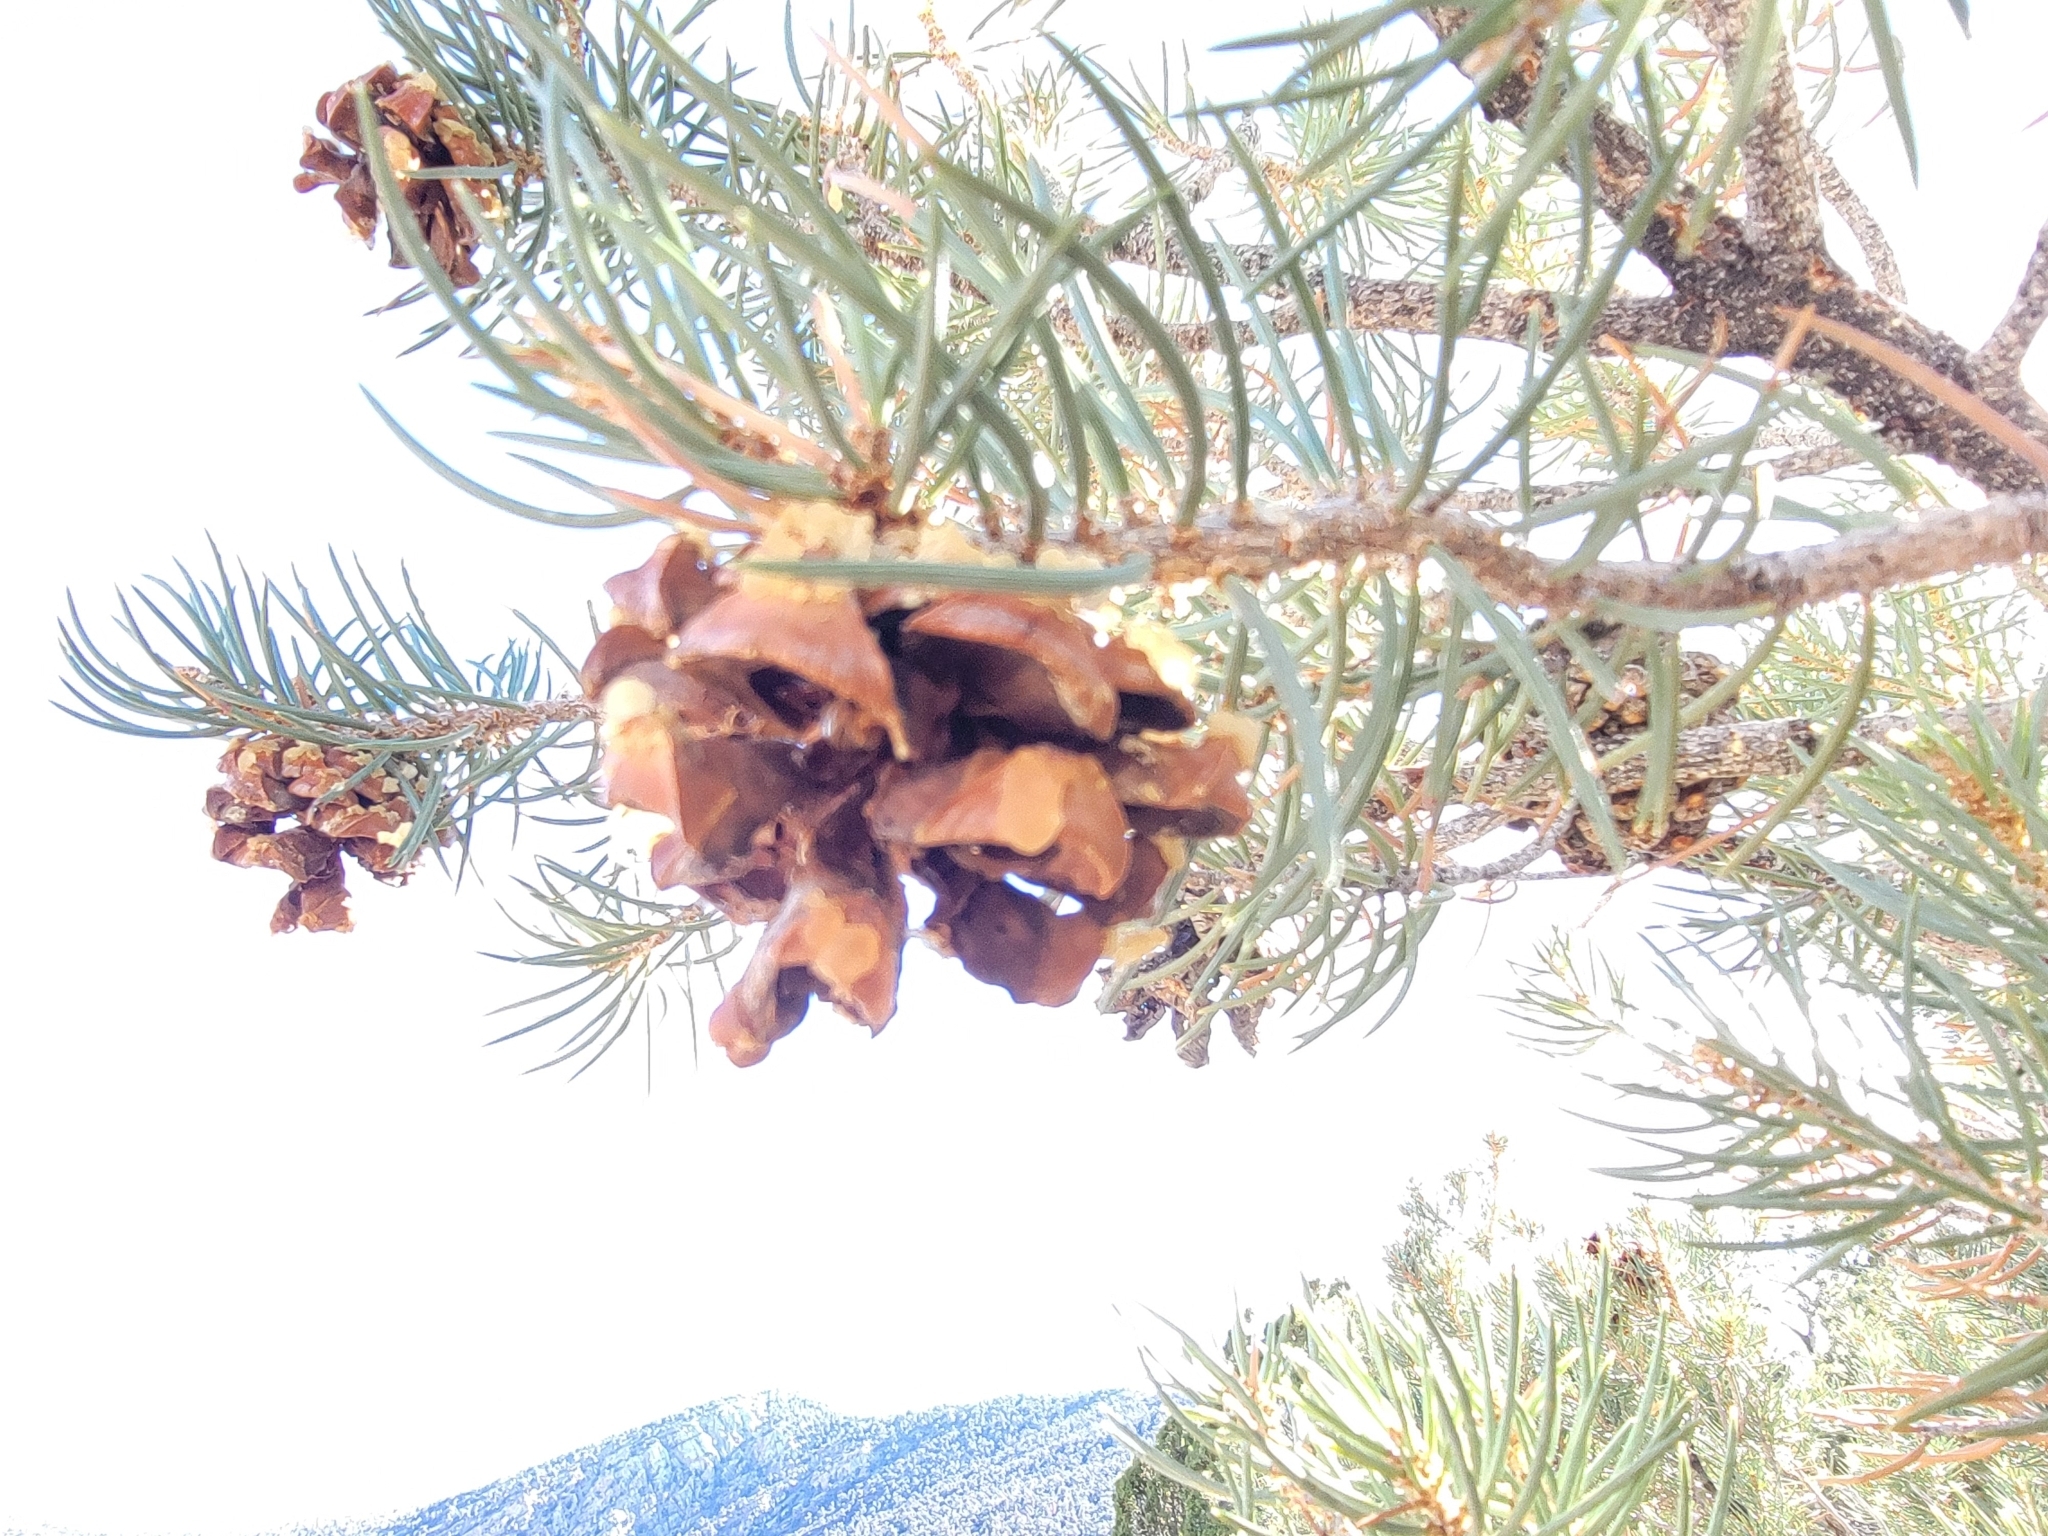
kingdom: Plantae
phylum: Tracheophyta
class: Pinopsida
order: Pinales
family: Pinaceae
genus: Pinus
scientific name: Pinus monophylla
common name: One-leaved nut pine
